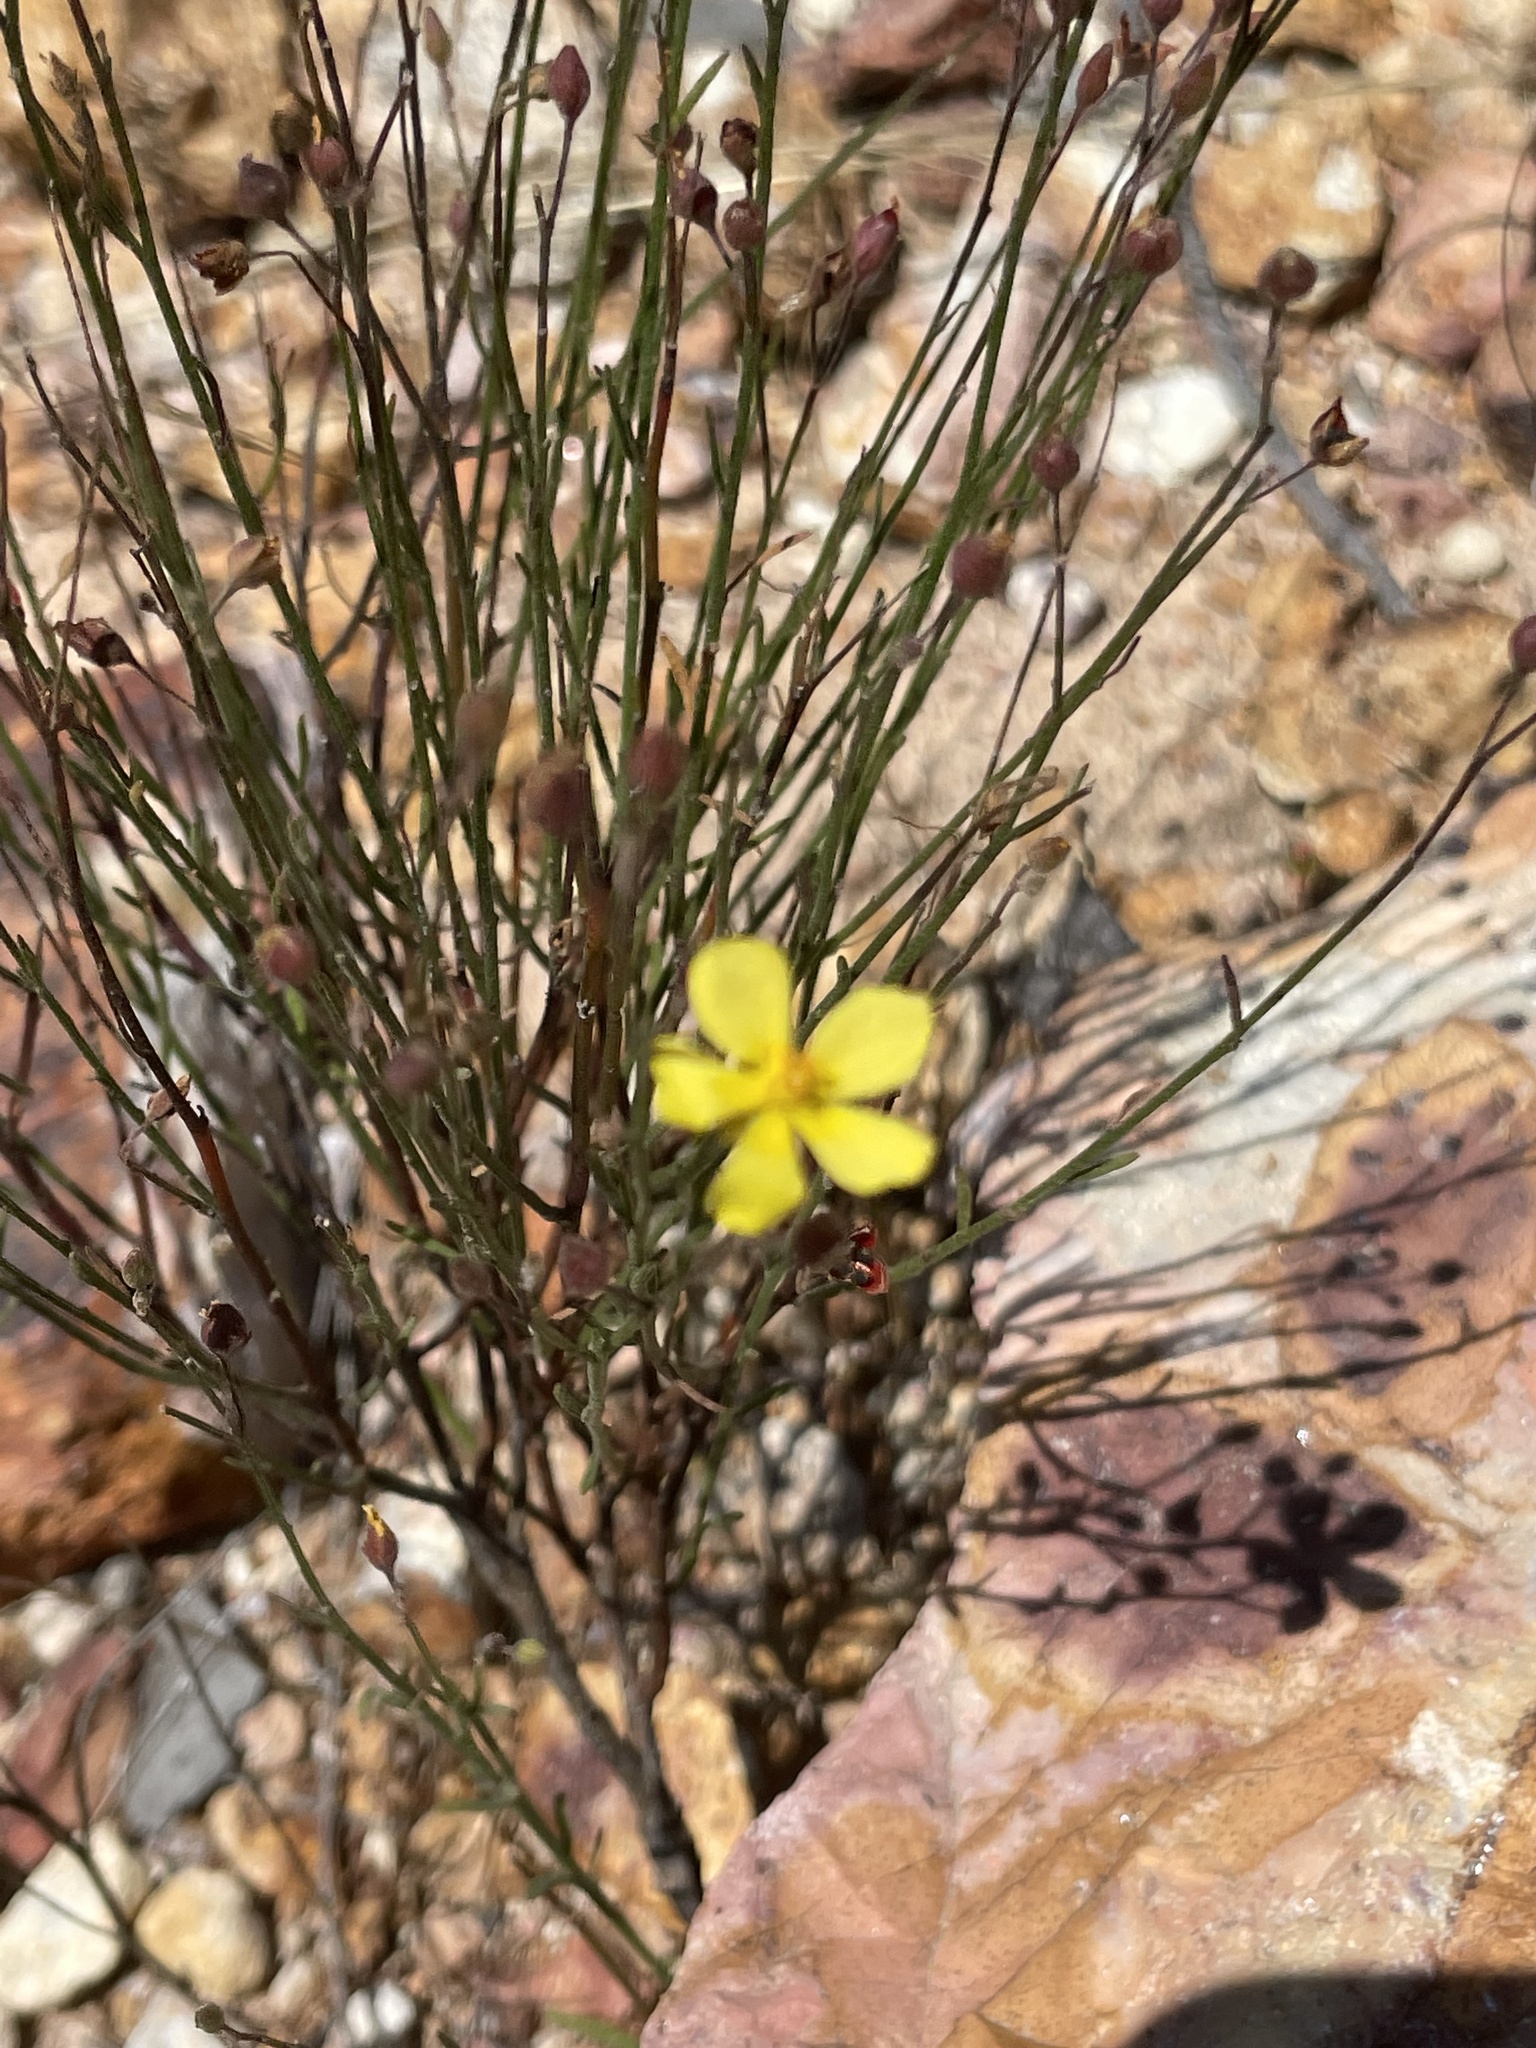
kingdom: Plantae
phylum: Tracheophyta
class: Magnoliopsida
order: Malvales
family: Cistaceae
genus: Crocanthemum
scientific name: Crocanthemum scoparium
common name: Broom-rose
